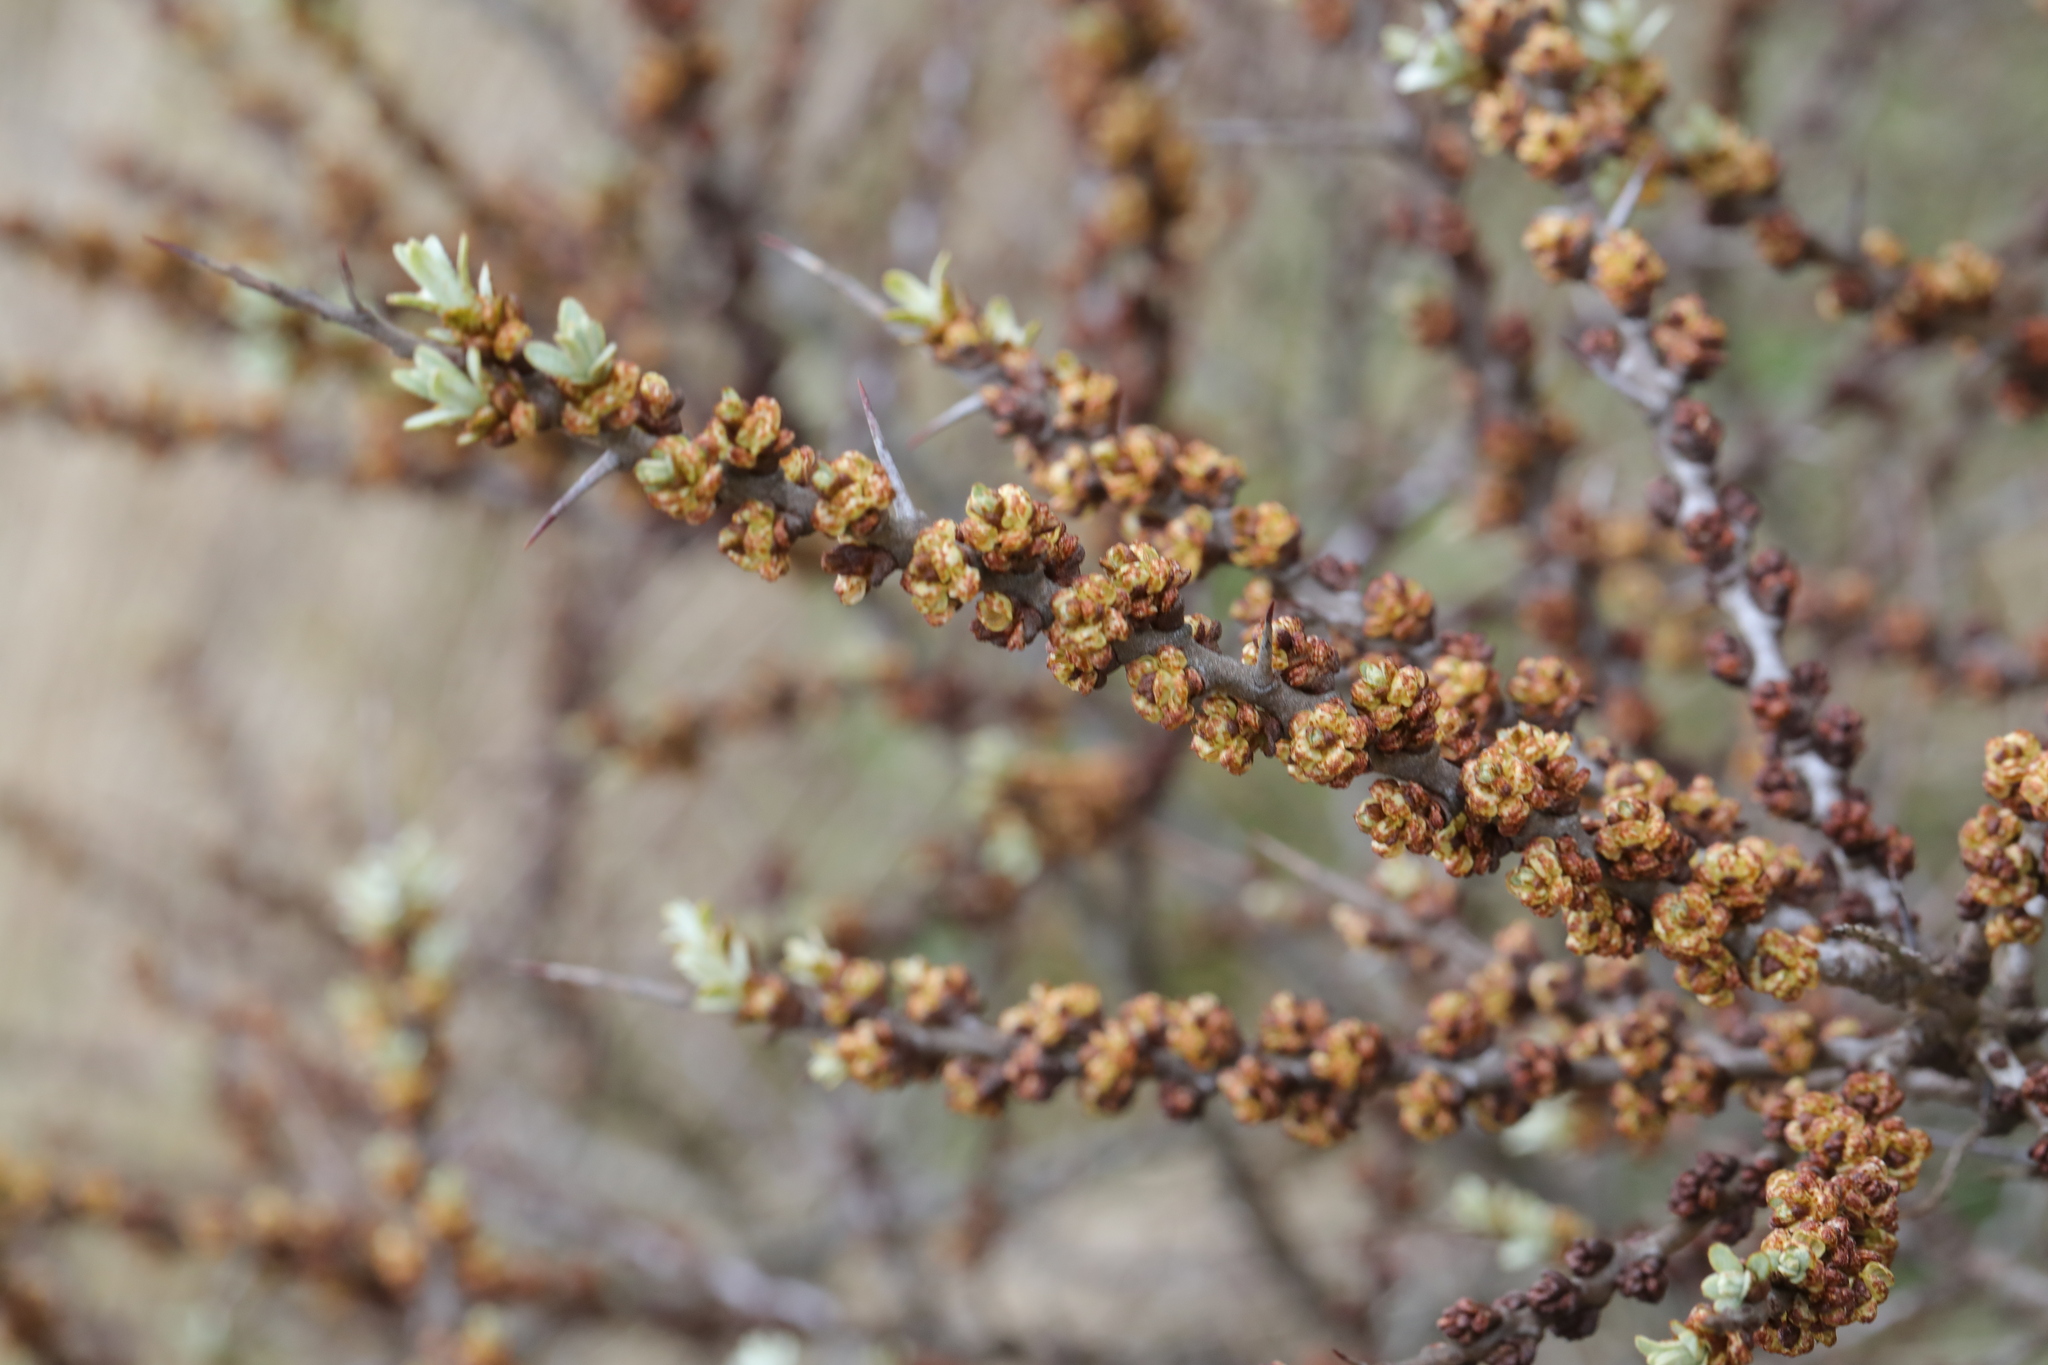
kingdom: Plantae
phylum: Tracheophyta
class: Magnoliopsida
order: Rosales
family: Elaeagnaceae
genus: Hippophae
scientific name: Hippophae rhamnoides
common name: Sea-buckthorn
